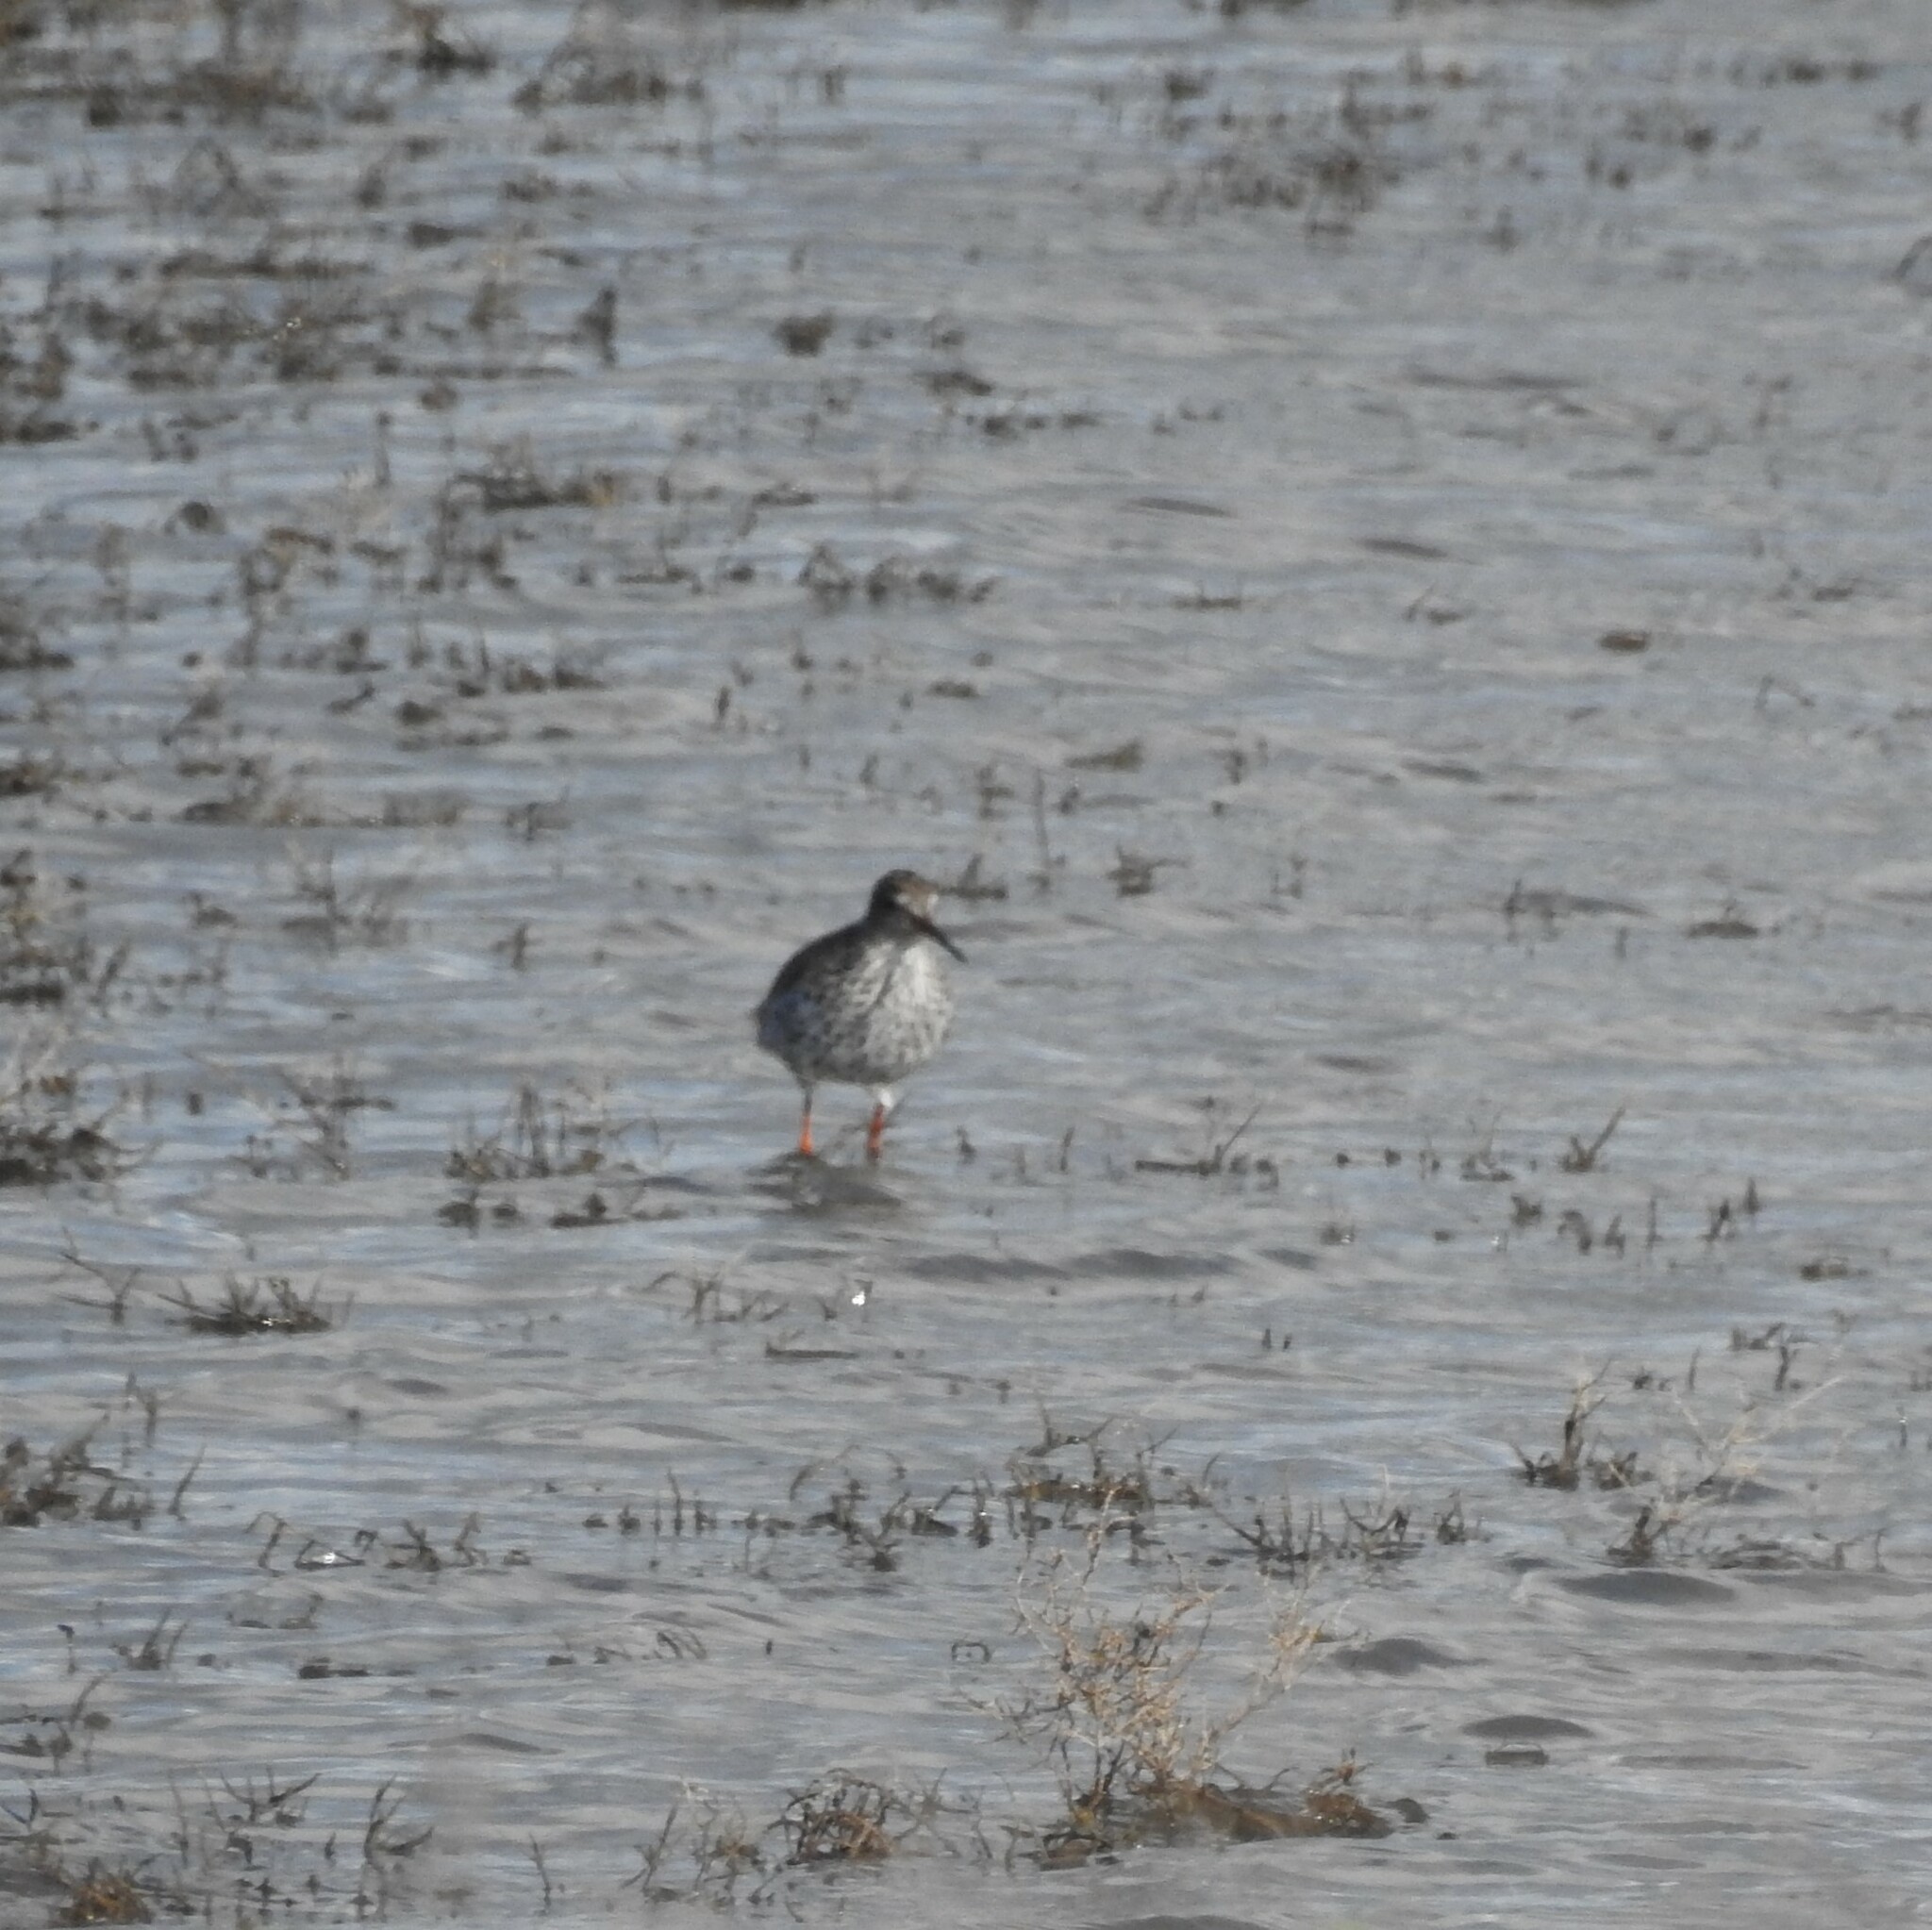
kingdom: Animalia
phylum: Chordata
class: Aves
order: Charadriiformes
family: Scolopacidae
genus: Tringa
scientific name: Tringa totanus
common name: Common redshank
